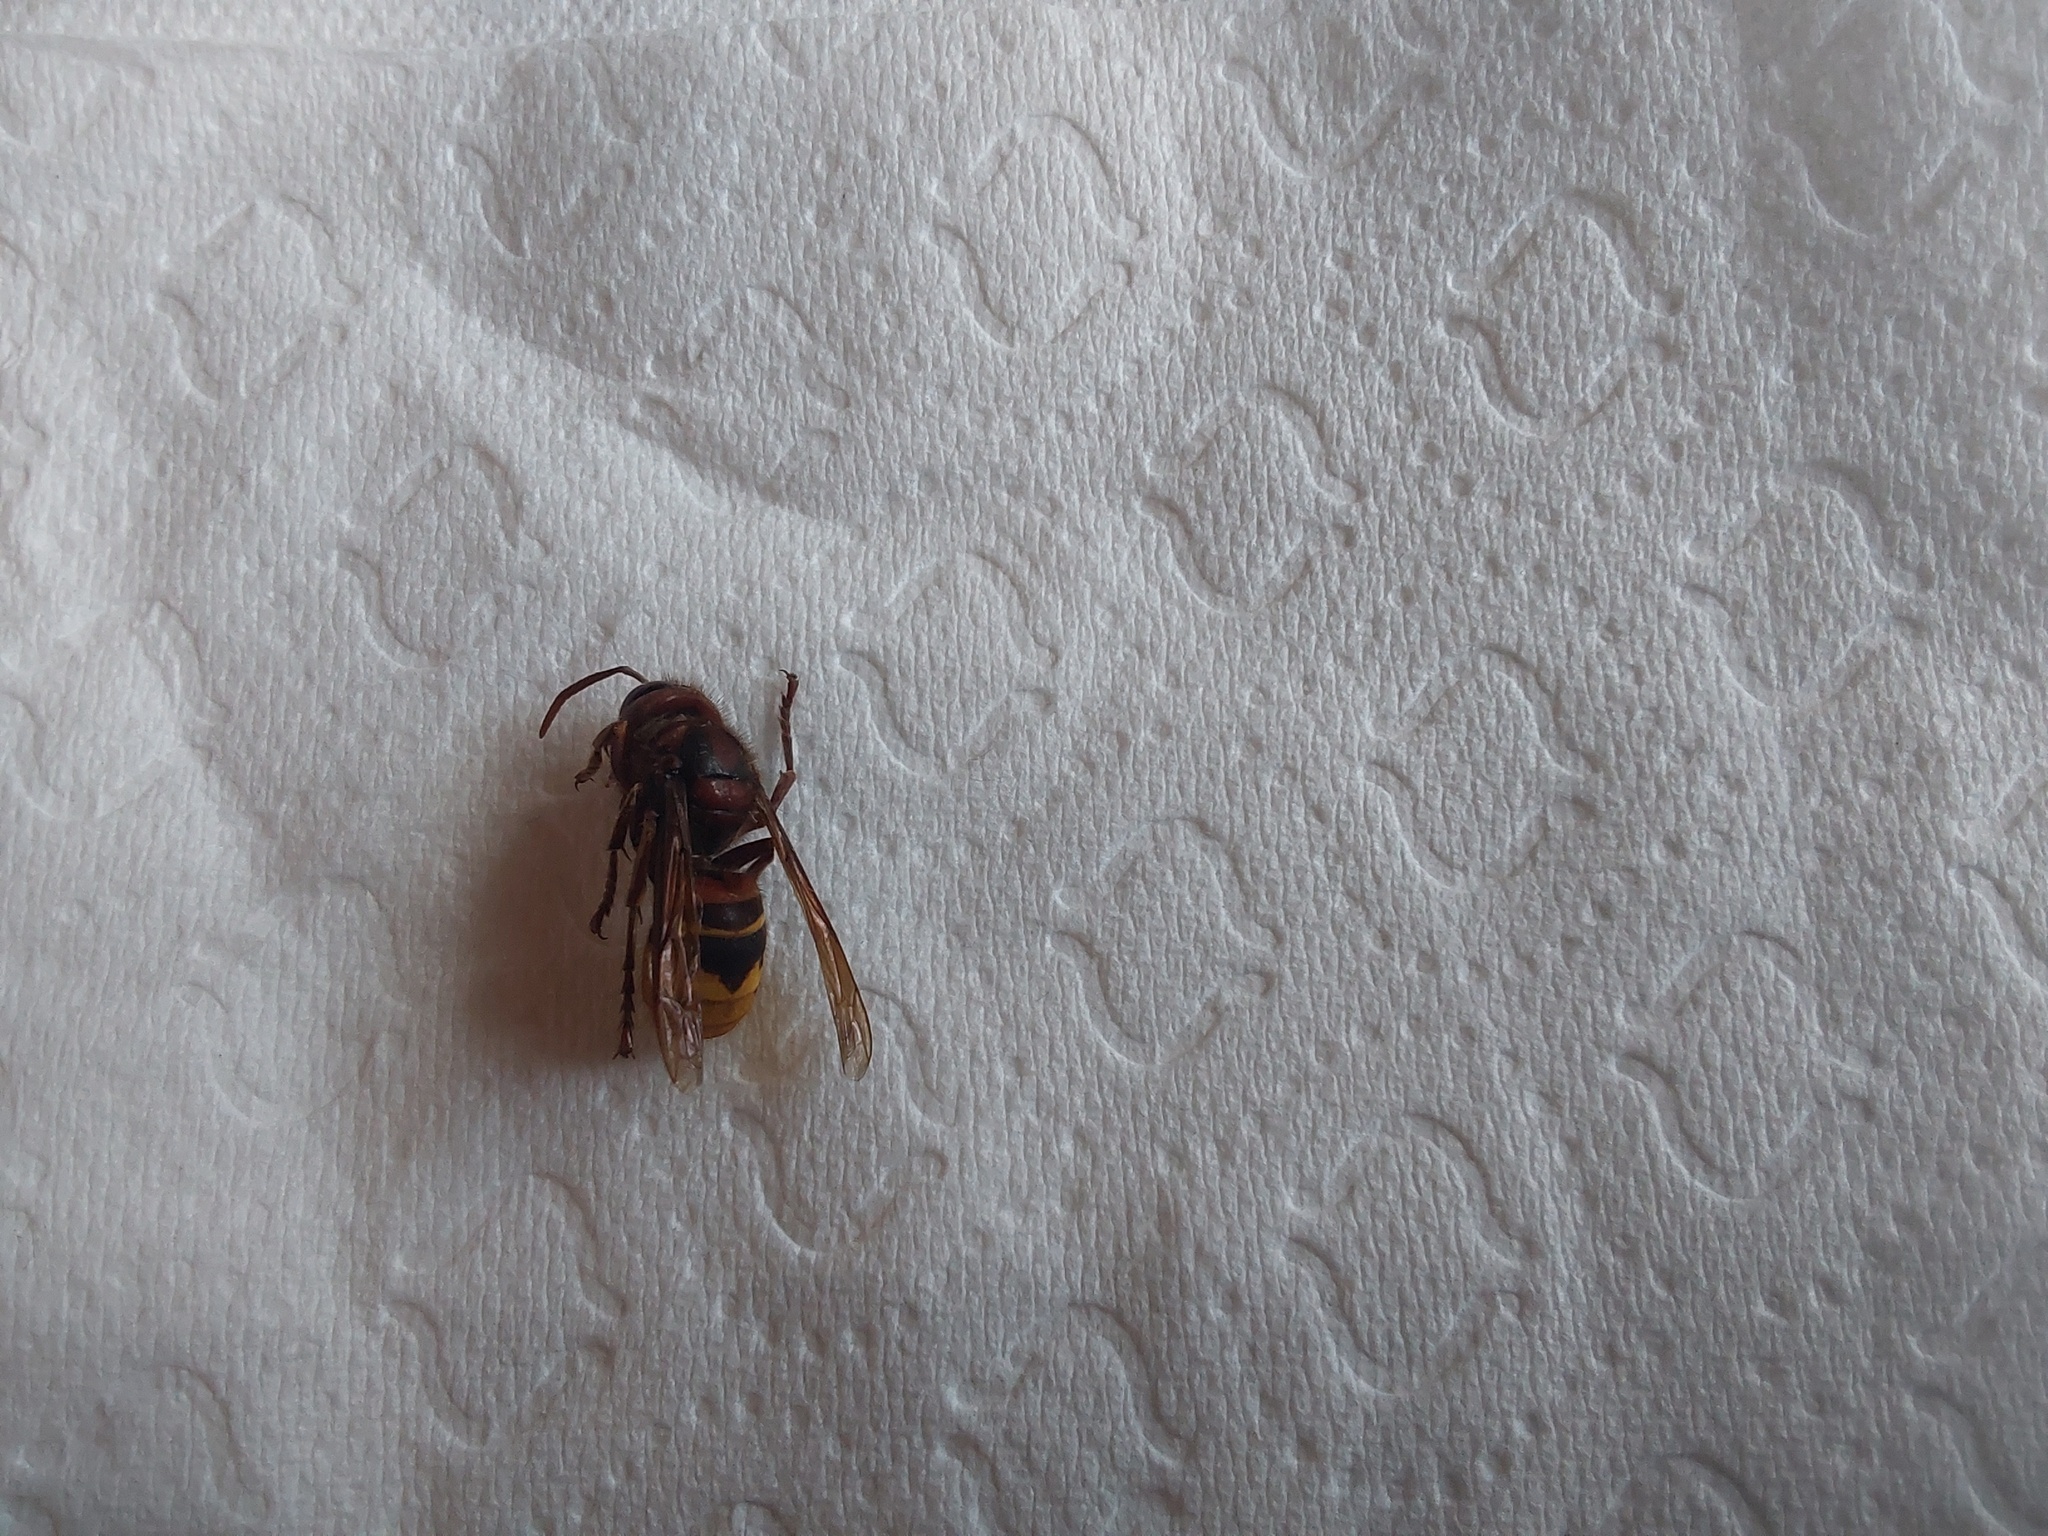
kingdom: Animalia
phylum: Arthropoda
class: Insecta
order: Hymenoptera
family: Vespidae
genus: Vespa
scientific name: Vespa crabro
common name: Hornet
